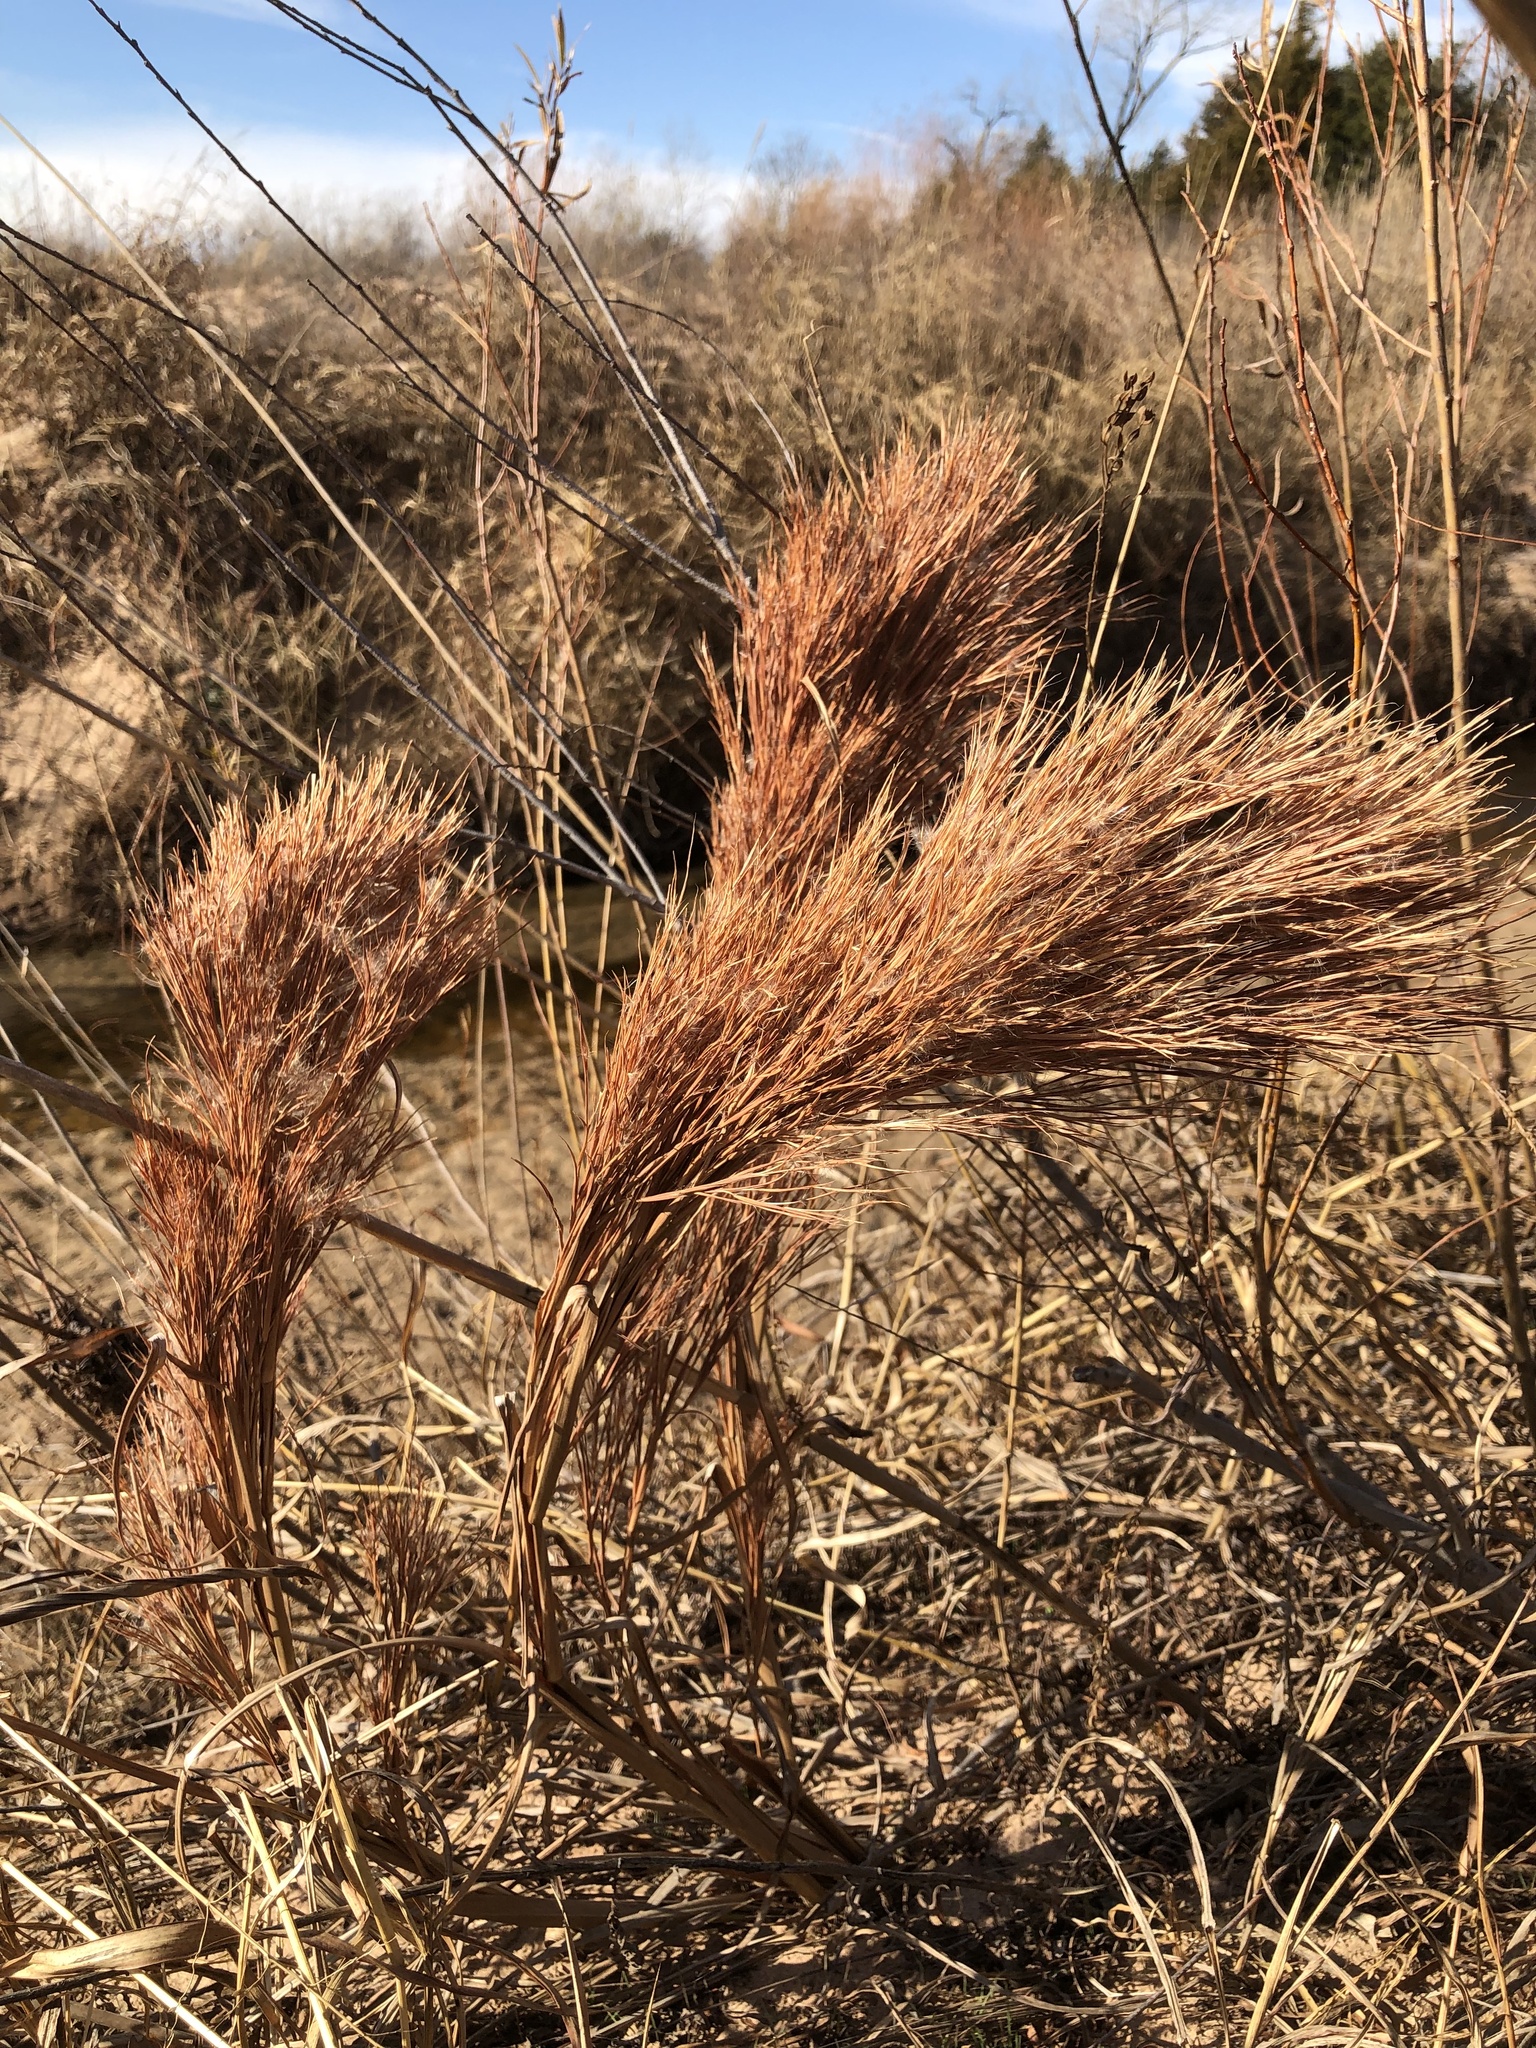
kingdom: Plantae
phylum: Tracheophyta
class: Liliopsida
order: Poales
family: Poaceae
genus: Andropogon
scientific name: Andropogon tenuispatheus
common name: Bushy bluestem
